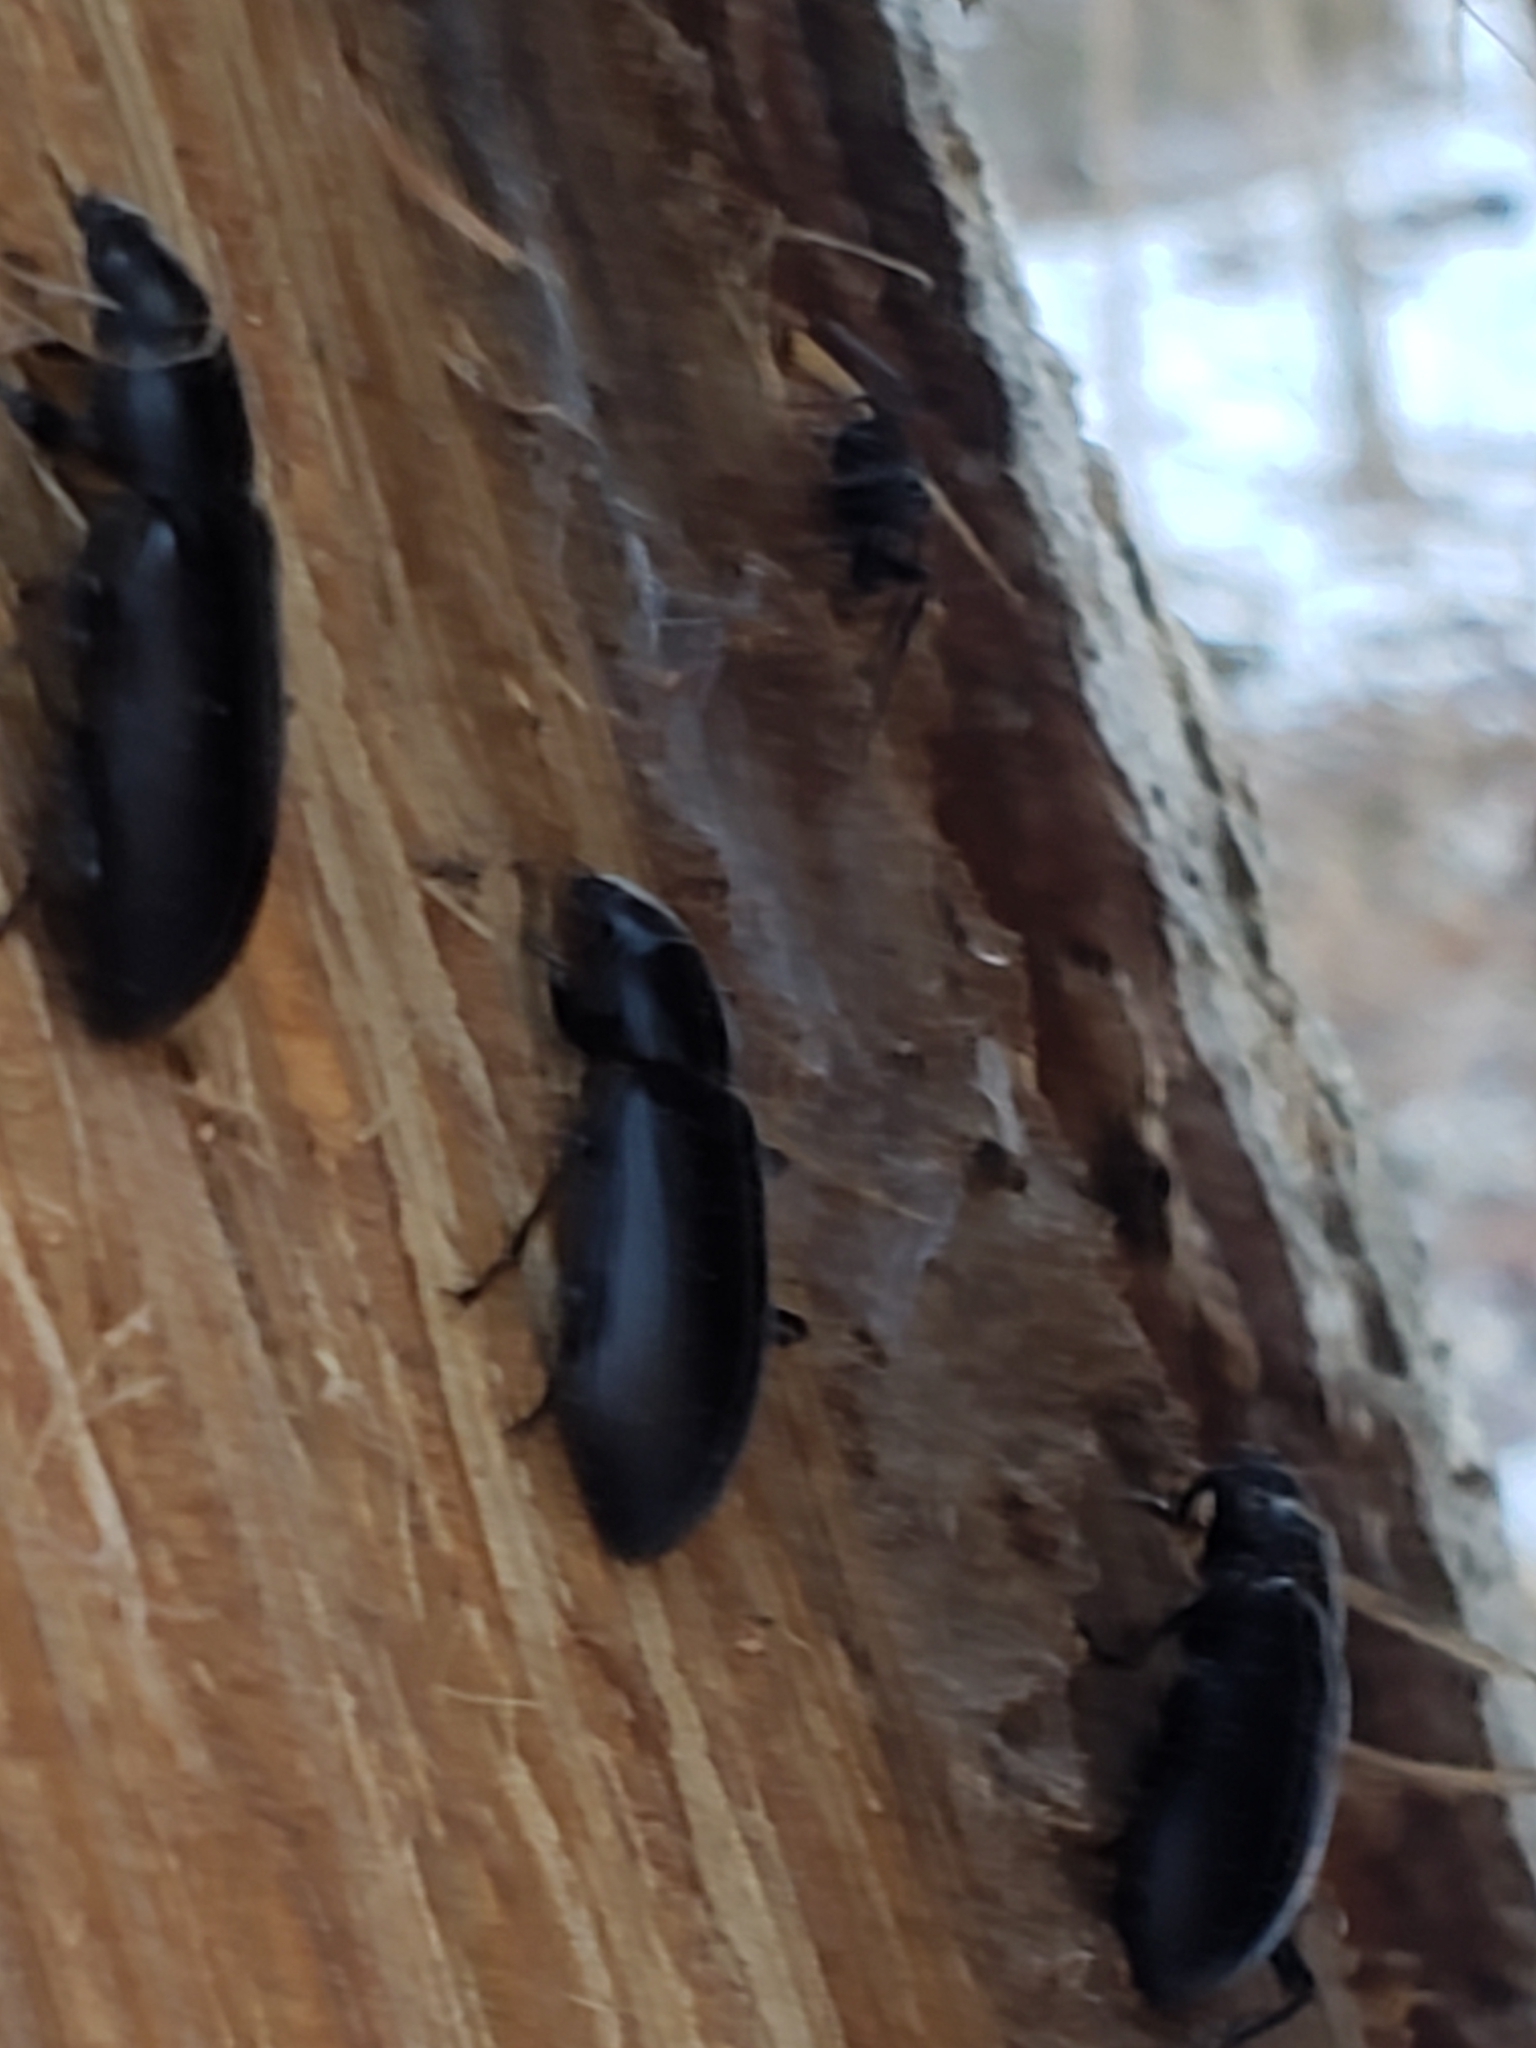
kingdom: Animalia
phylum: Arthropoda
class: Insecta
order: Coleoptera
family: Tenebrionidae
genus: Alobates
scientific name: Alobates
